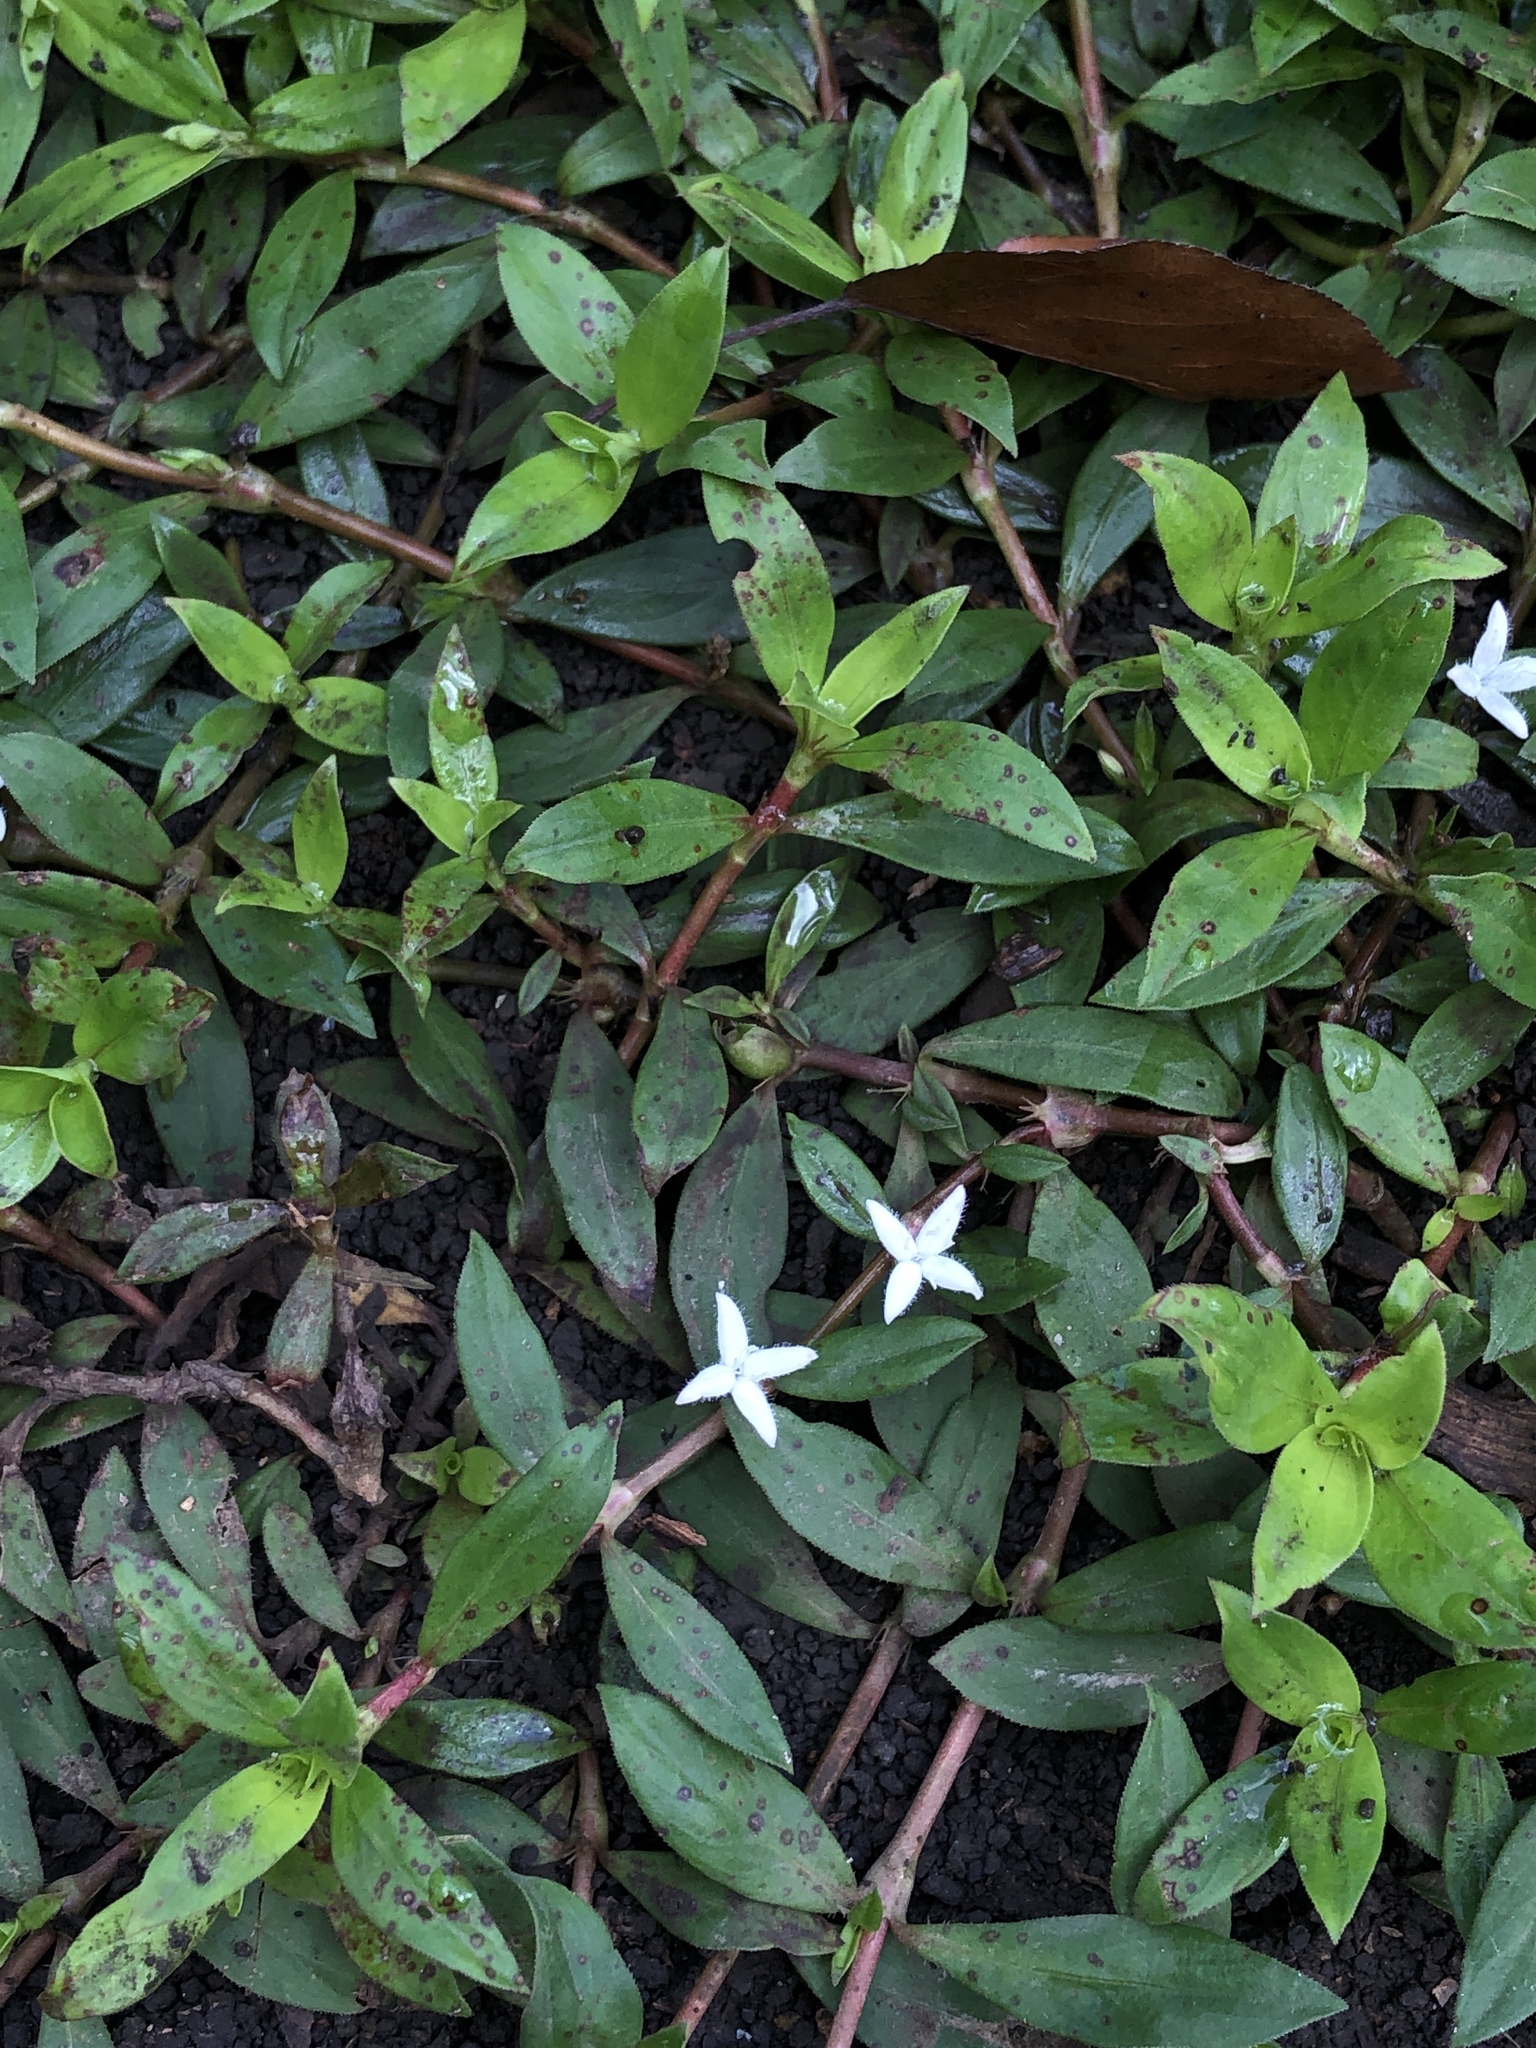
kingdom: Plantae
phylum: Tracheophyta
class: Magnoliopsida
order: Gentianales
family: Rubiaceae
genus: Diodia
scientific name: Diodia virginiana
